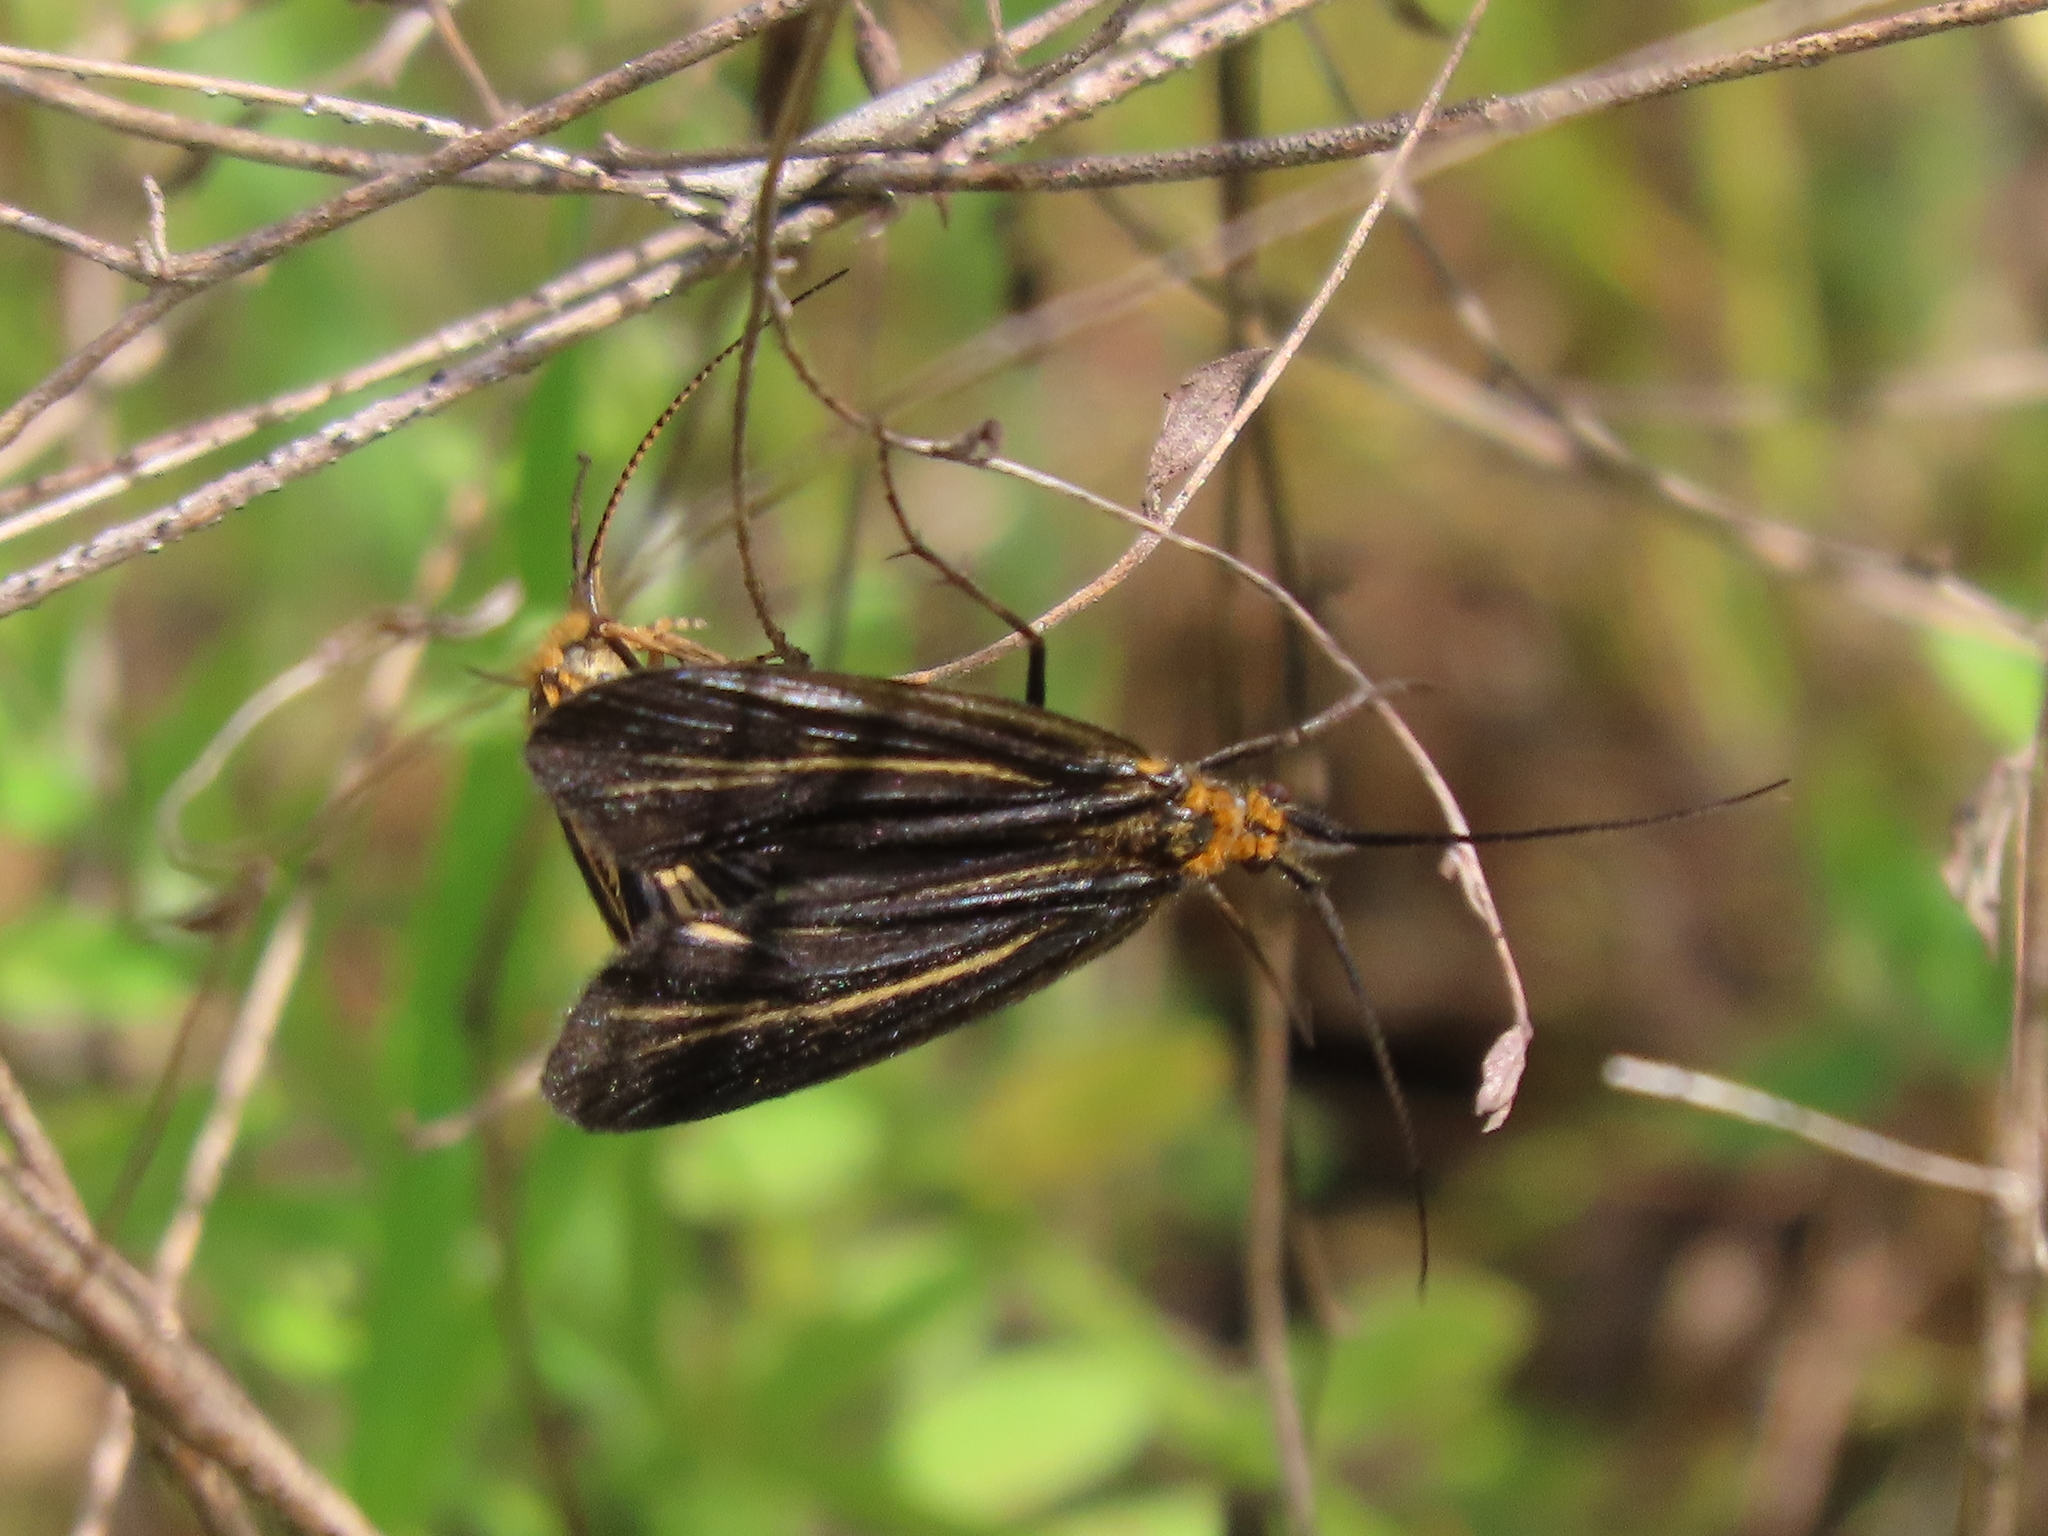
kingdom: Animalia
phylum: Arthropoda
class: Insecta
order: Trichoptera
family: Odontoceridae
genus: Nerophilus
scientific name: Nerophilus californicus
